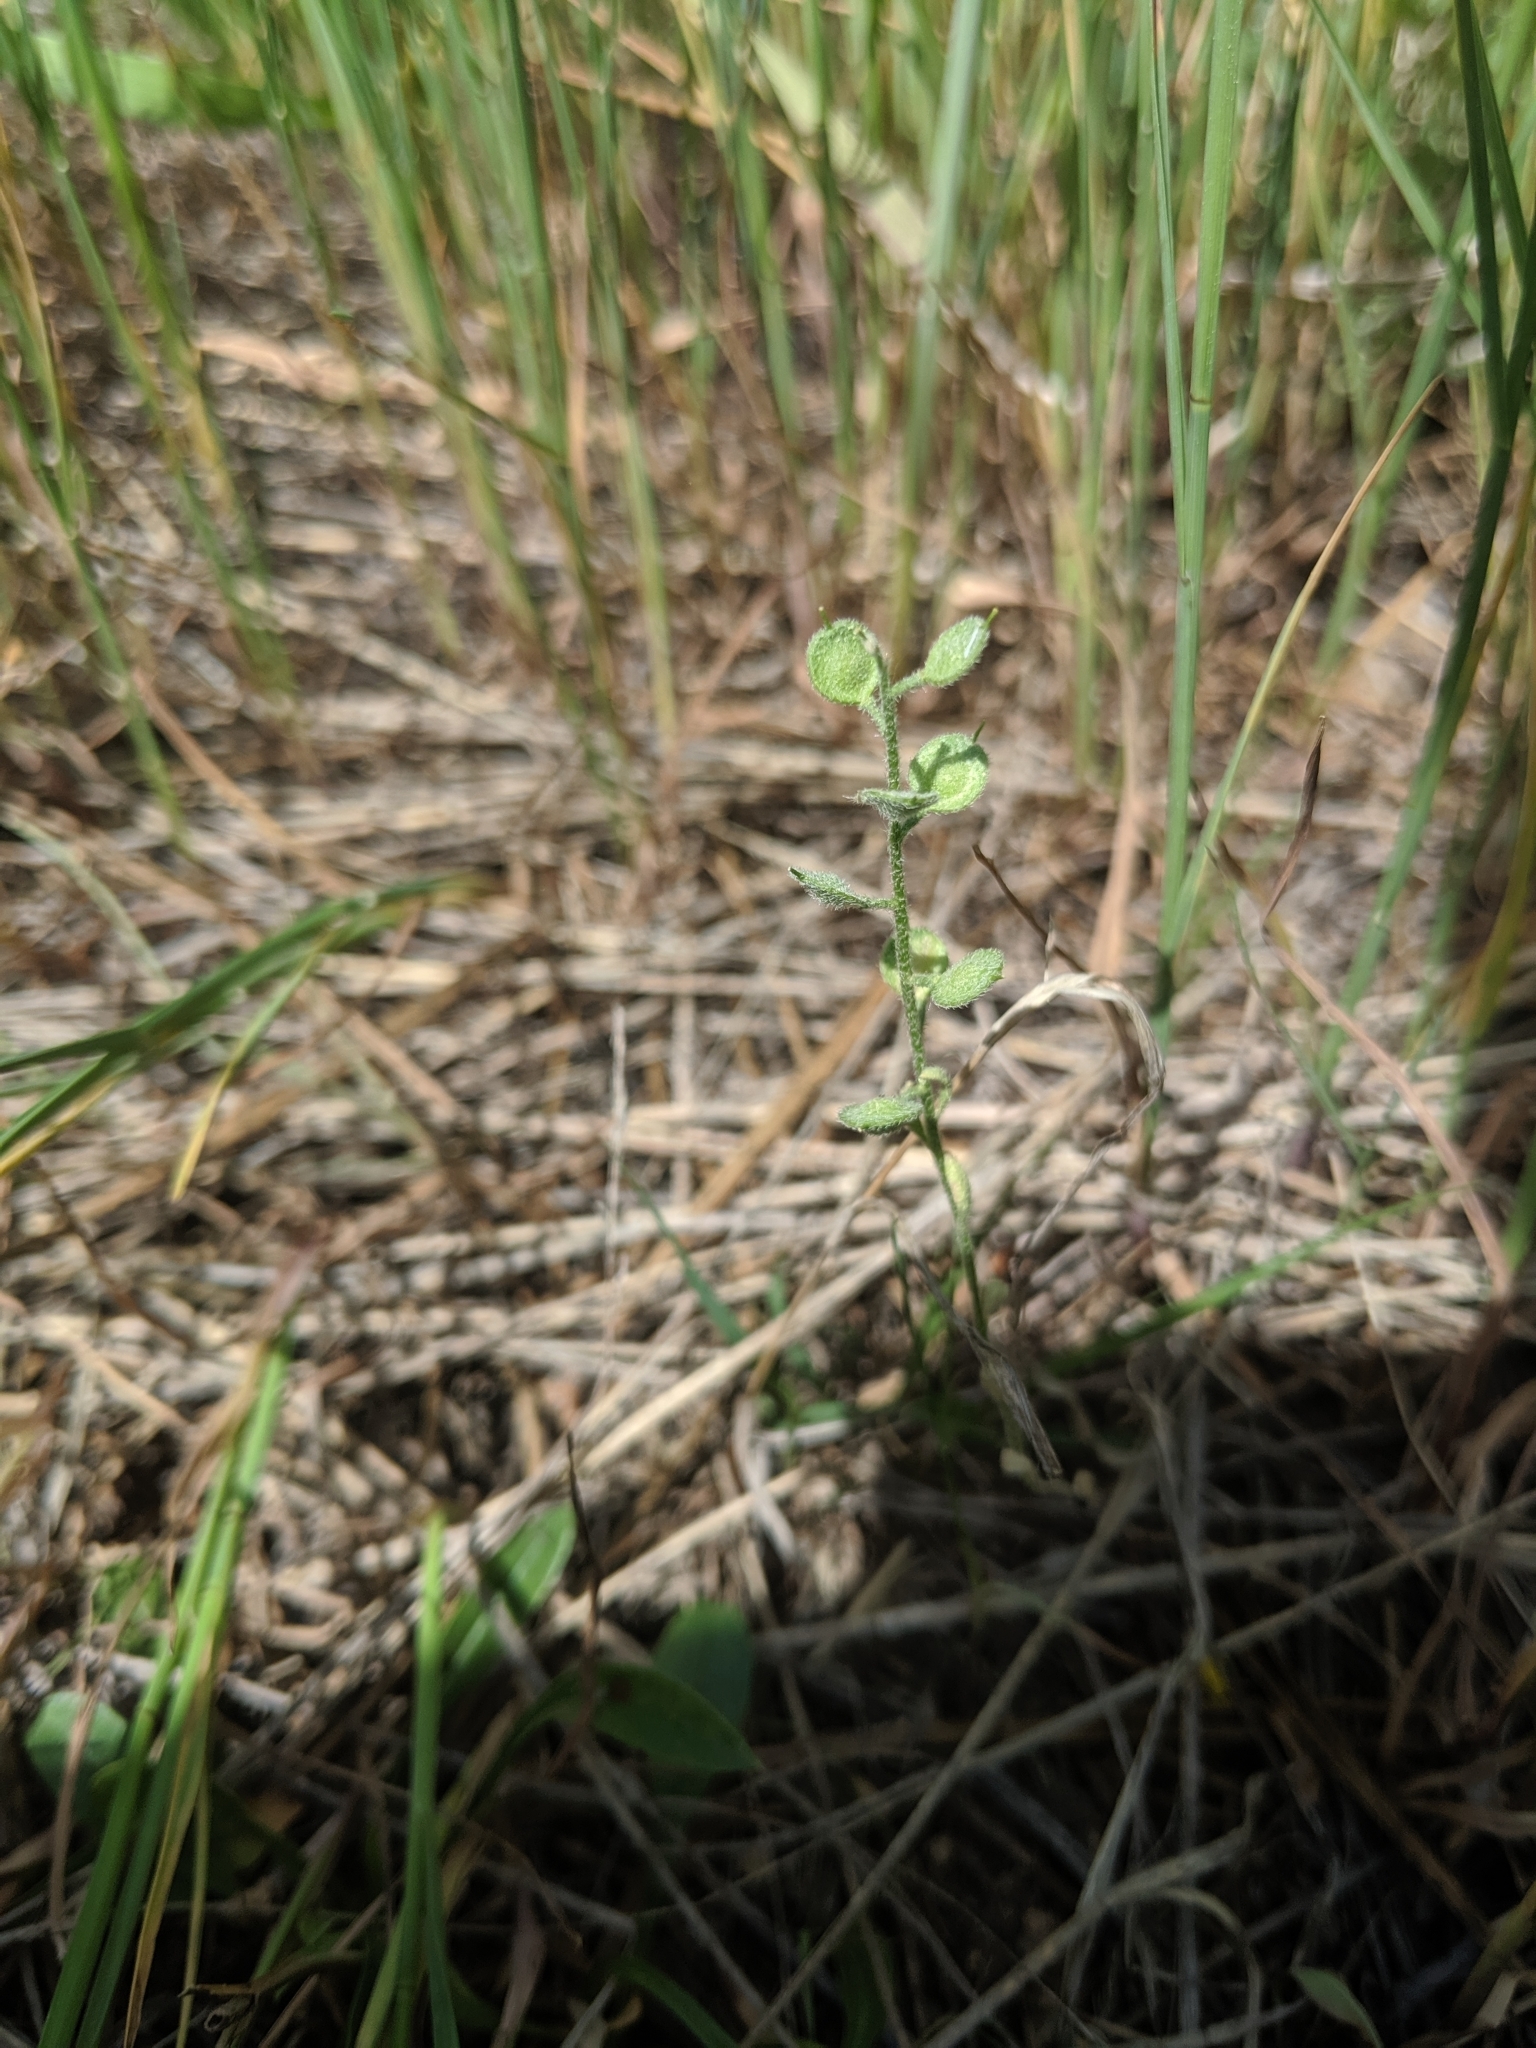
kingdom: Plantae
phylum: Tracheophyta
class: Magnoliopsida
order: Brassicales
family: Brassicaceae
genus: Alyssum
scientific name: Alyssum simplex
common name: Alyssum
